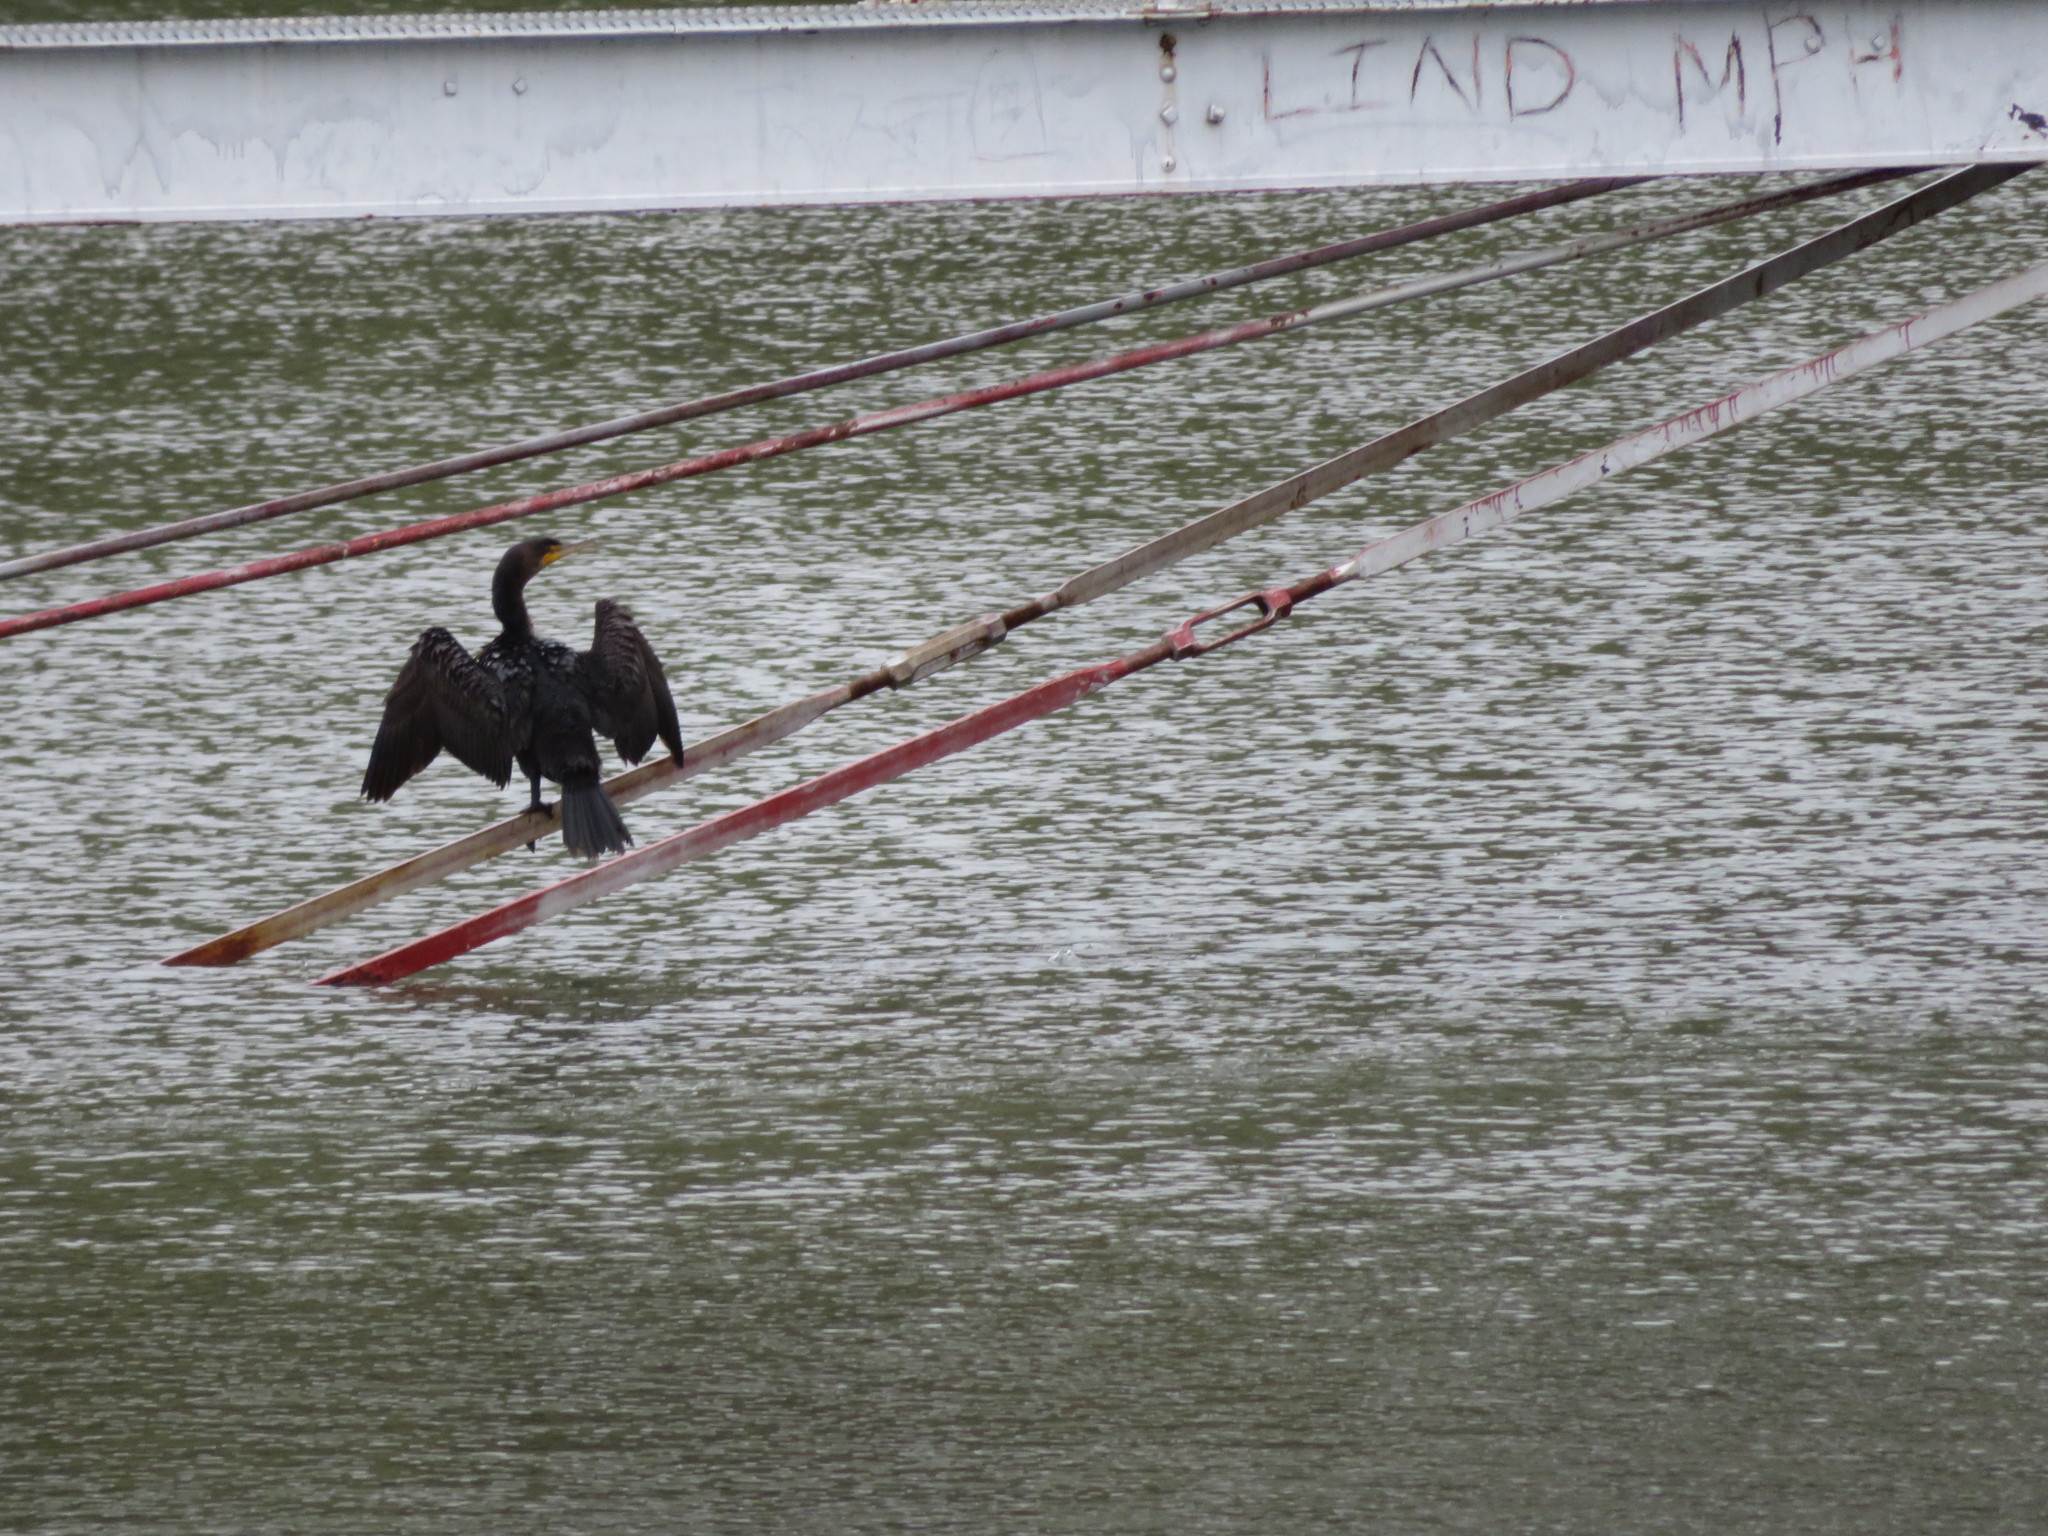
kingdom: Animalia
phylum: Chordata
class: Aves
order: Suliformes
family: Phalacrocoracidae
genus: Phalacrocorax
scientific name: Phalacrocorax auritus
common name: Double-crested cormorant
